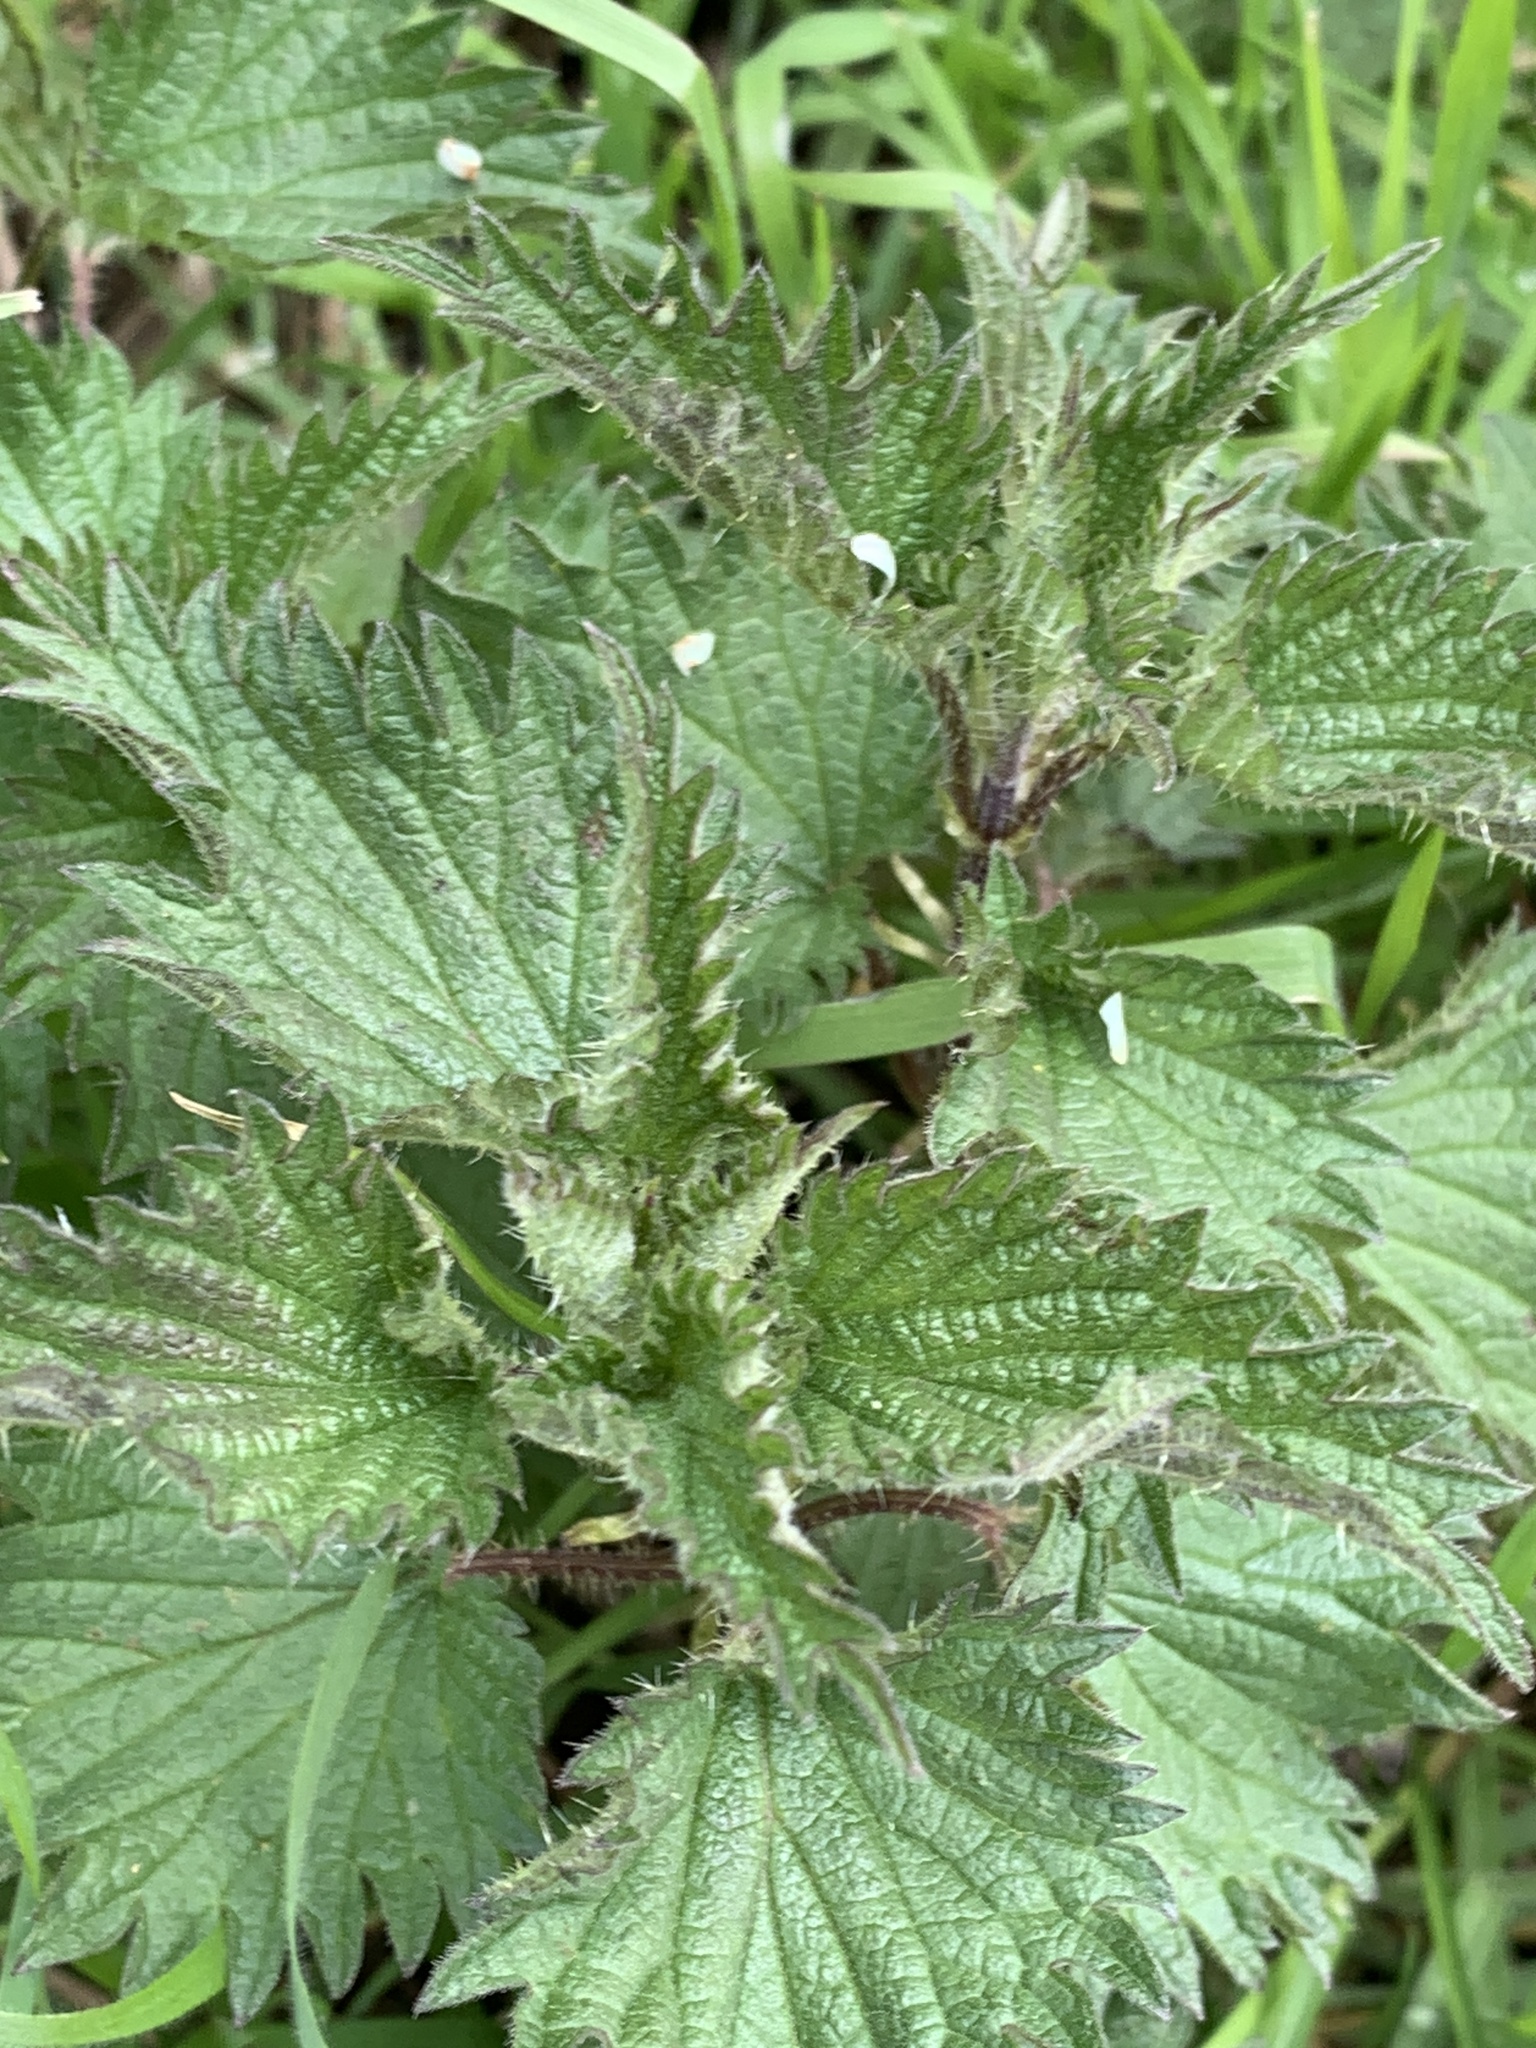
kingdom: Plantae
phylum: Tracheophyta
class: Magnoliopsida
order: Rosales
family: Urticaceae
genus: Urtica
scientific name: Urtica dioica
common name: Common nettle
